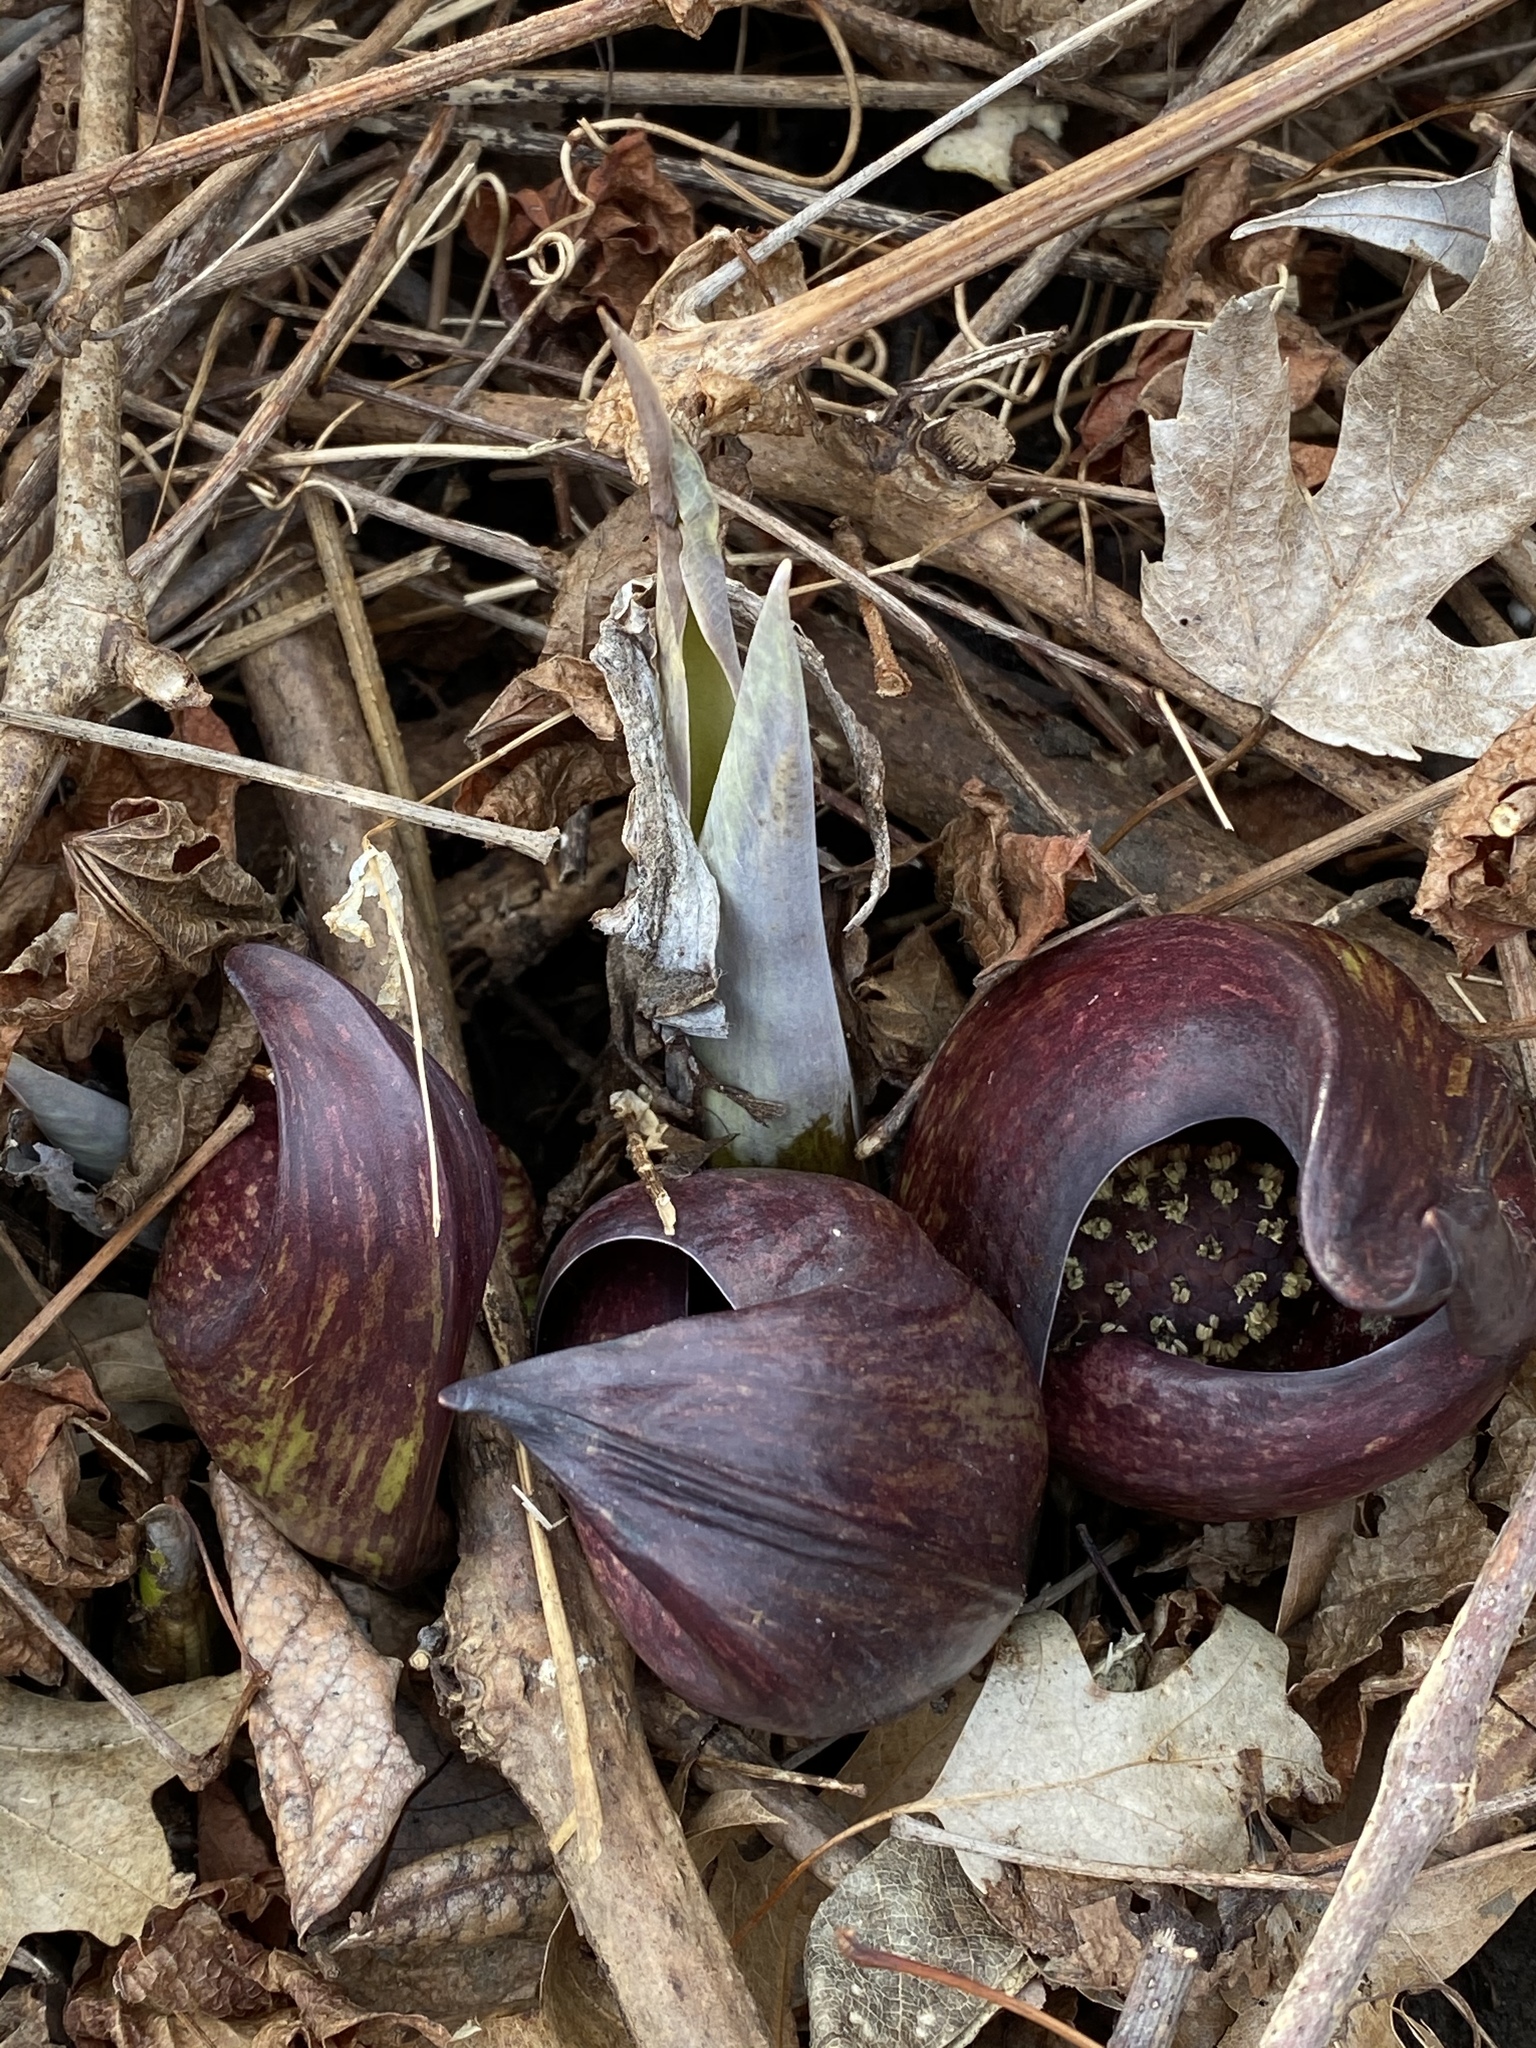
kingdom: Plantae
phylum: Tracheophyta
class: Liliopsida
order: Alismatales
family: Araceae
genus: Symplocarpus
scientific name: Symplocarpus foetidus
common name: Eastern skunk cabbage
